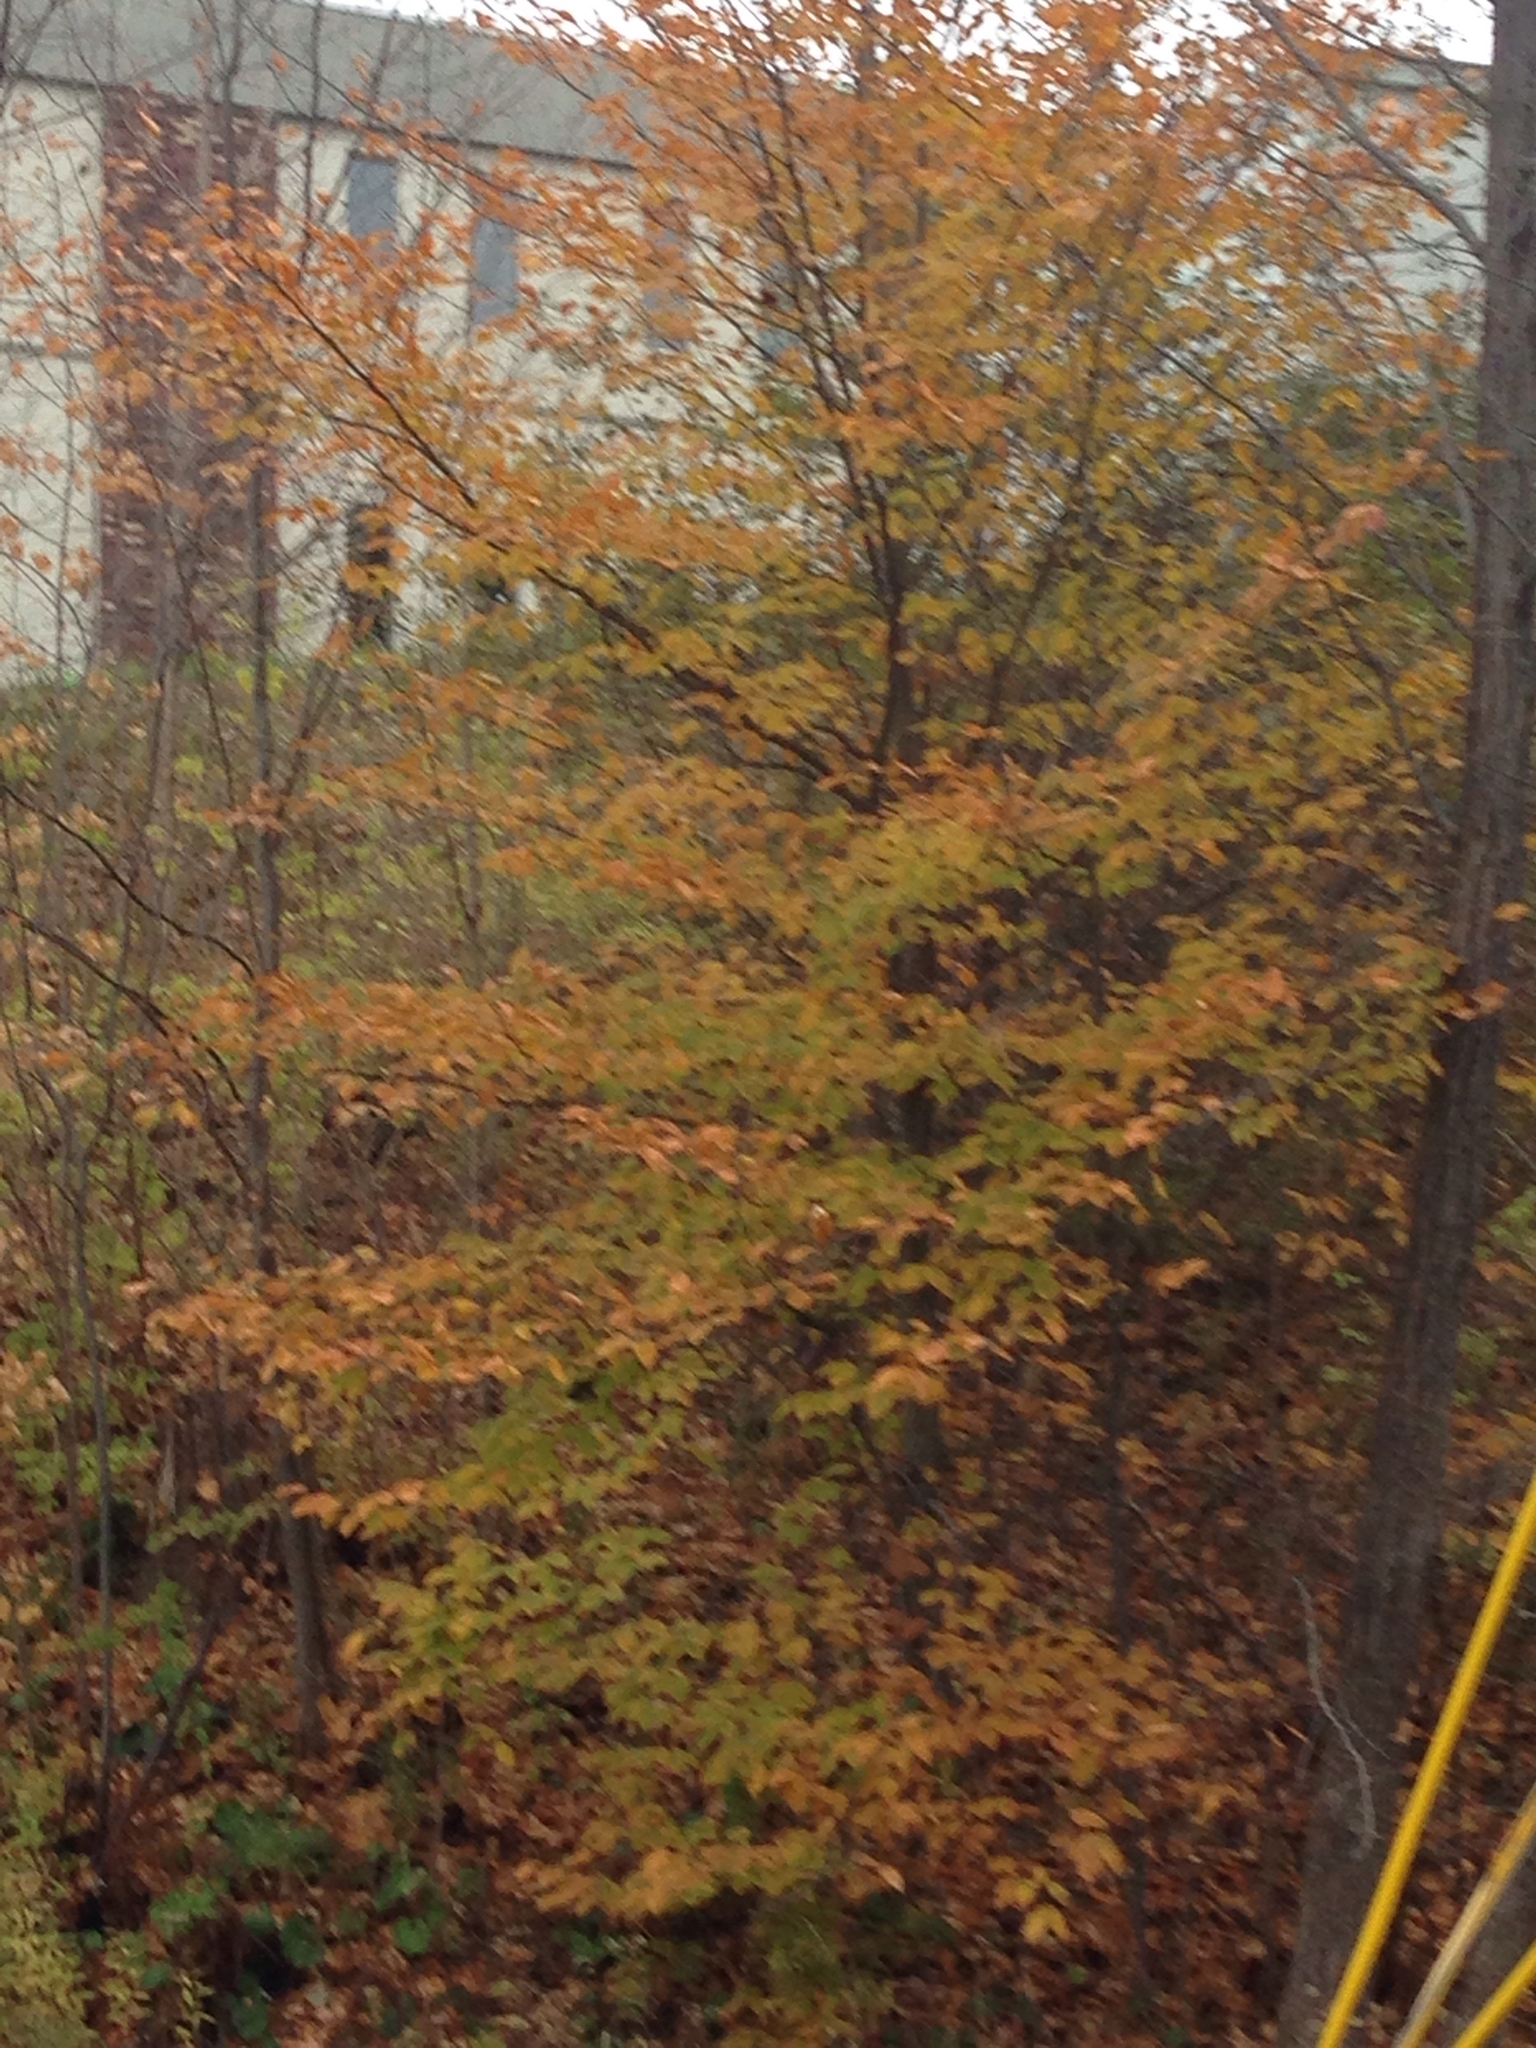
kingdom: Plantae
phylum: Tracheophyta
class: Magnoliopsida
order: Fagales
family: Fagaceae
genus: Fagus
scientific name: Fagus grandifolia
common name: American beech
